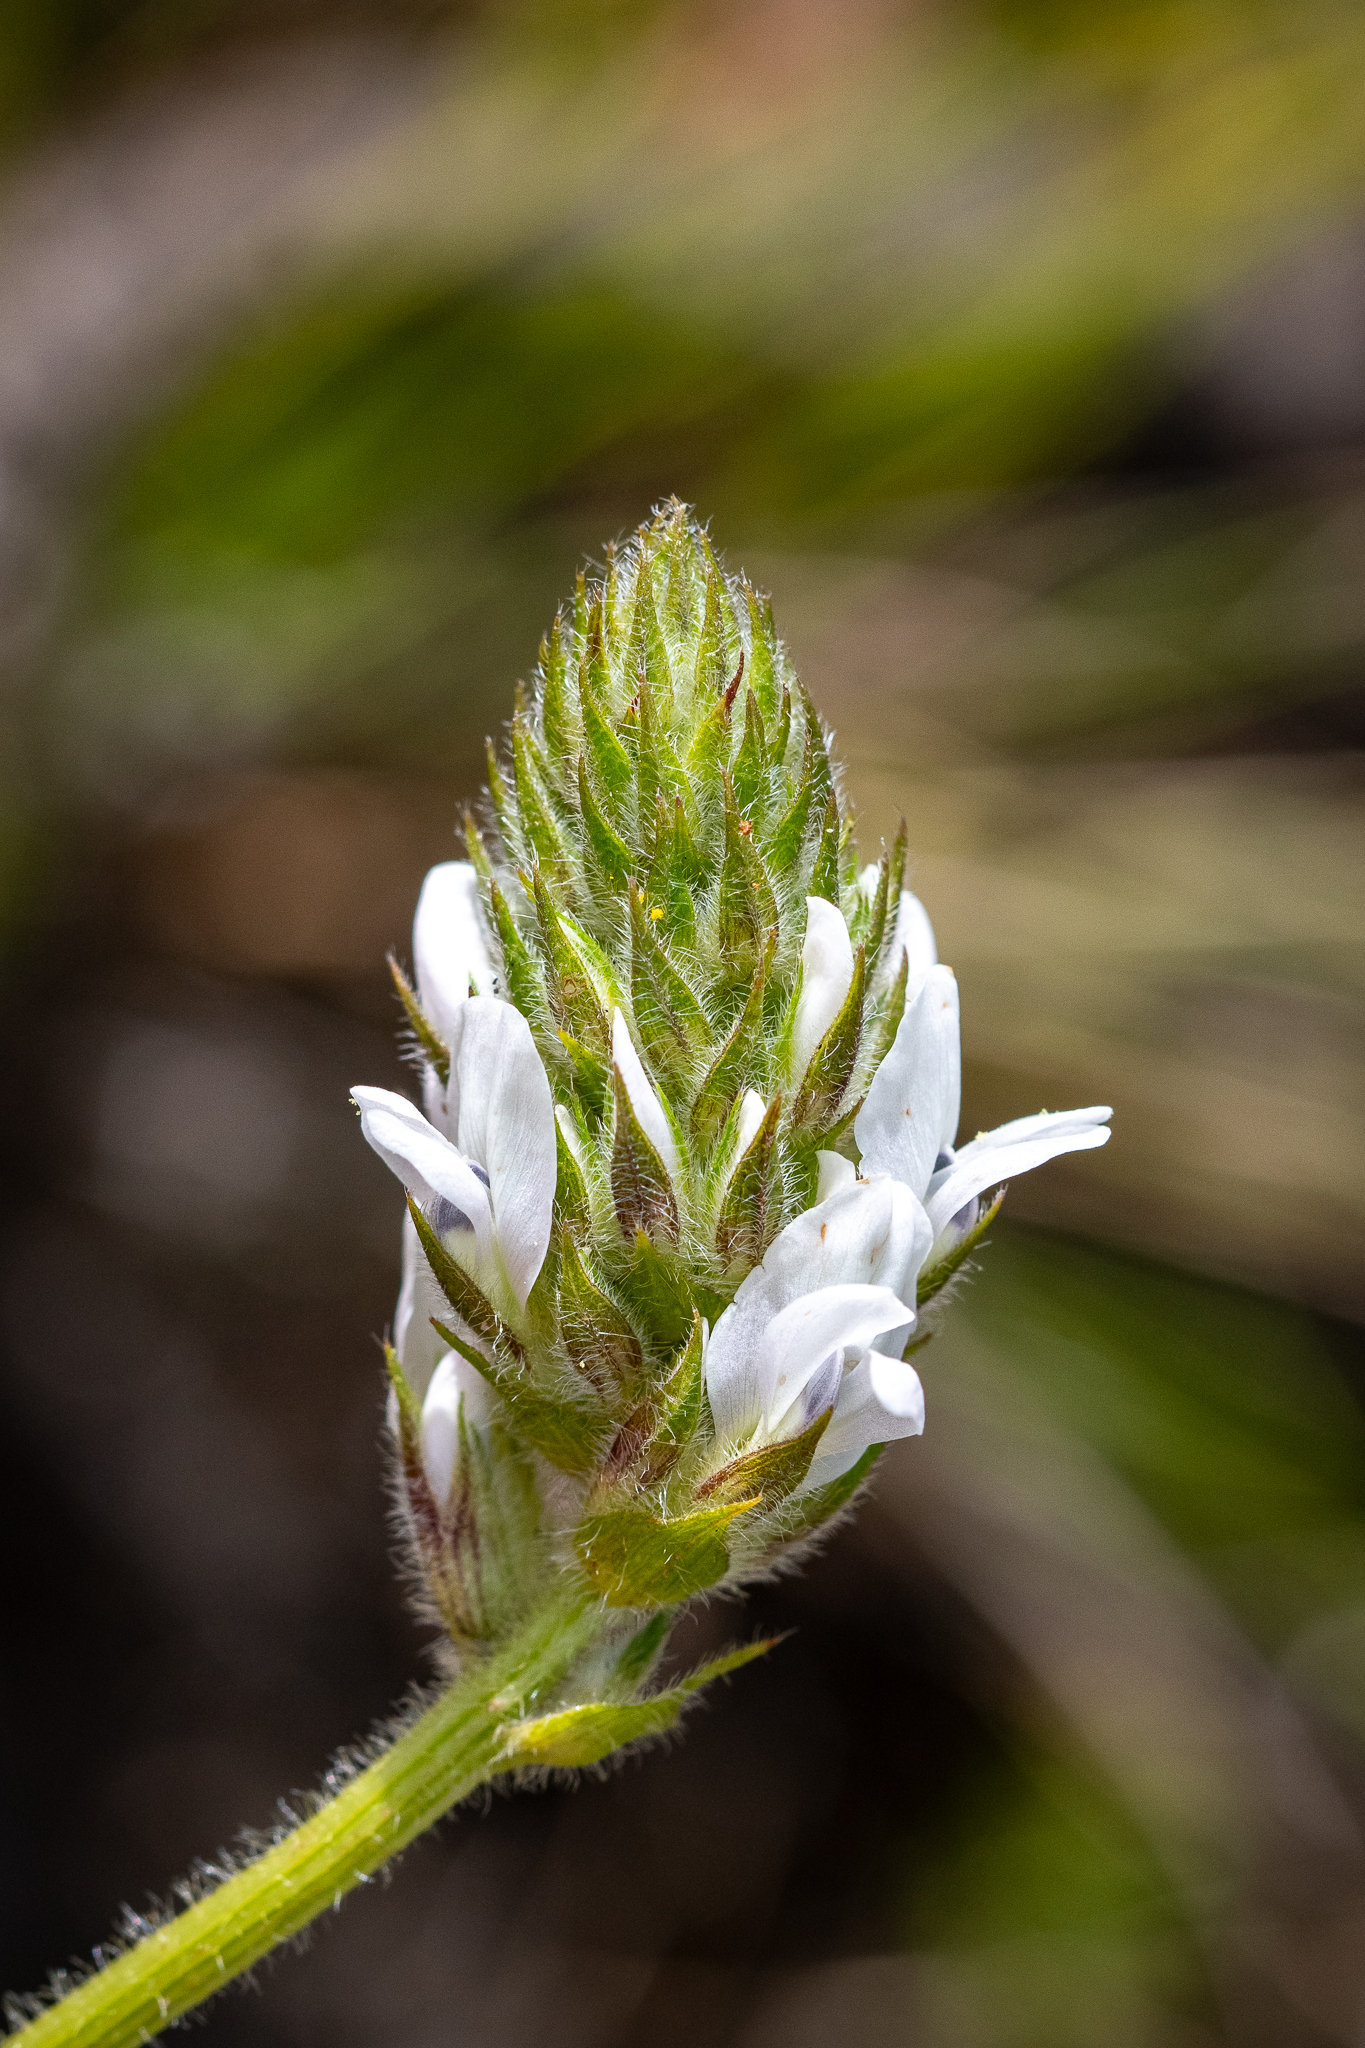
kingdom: Plantae
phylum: Tracheophyta
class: Magnoliopsida
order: Fabales
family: Fabaceae
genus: Psoralea
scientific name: Psoralea zeyheri
